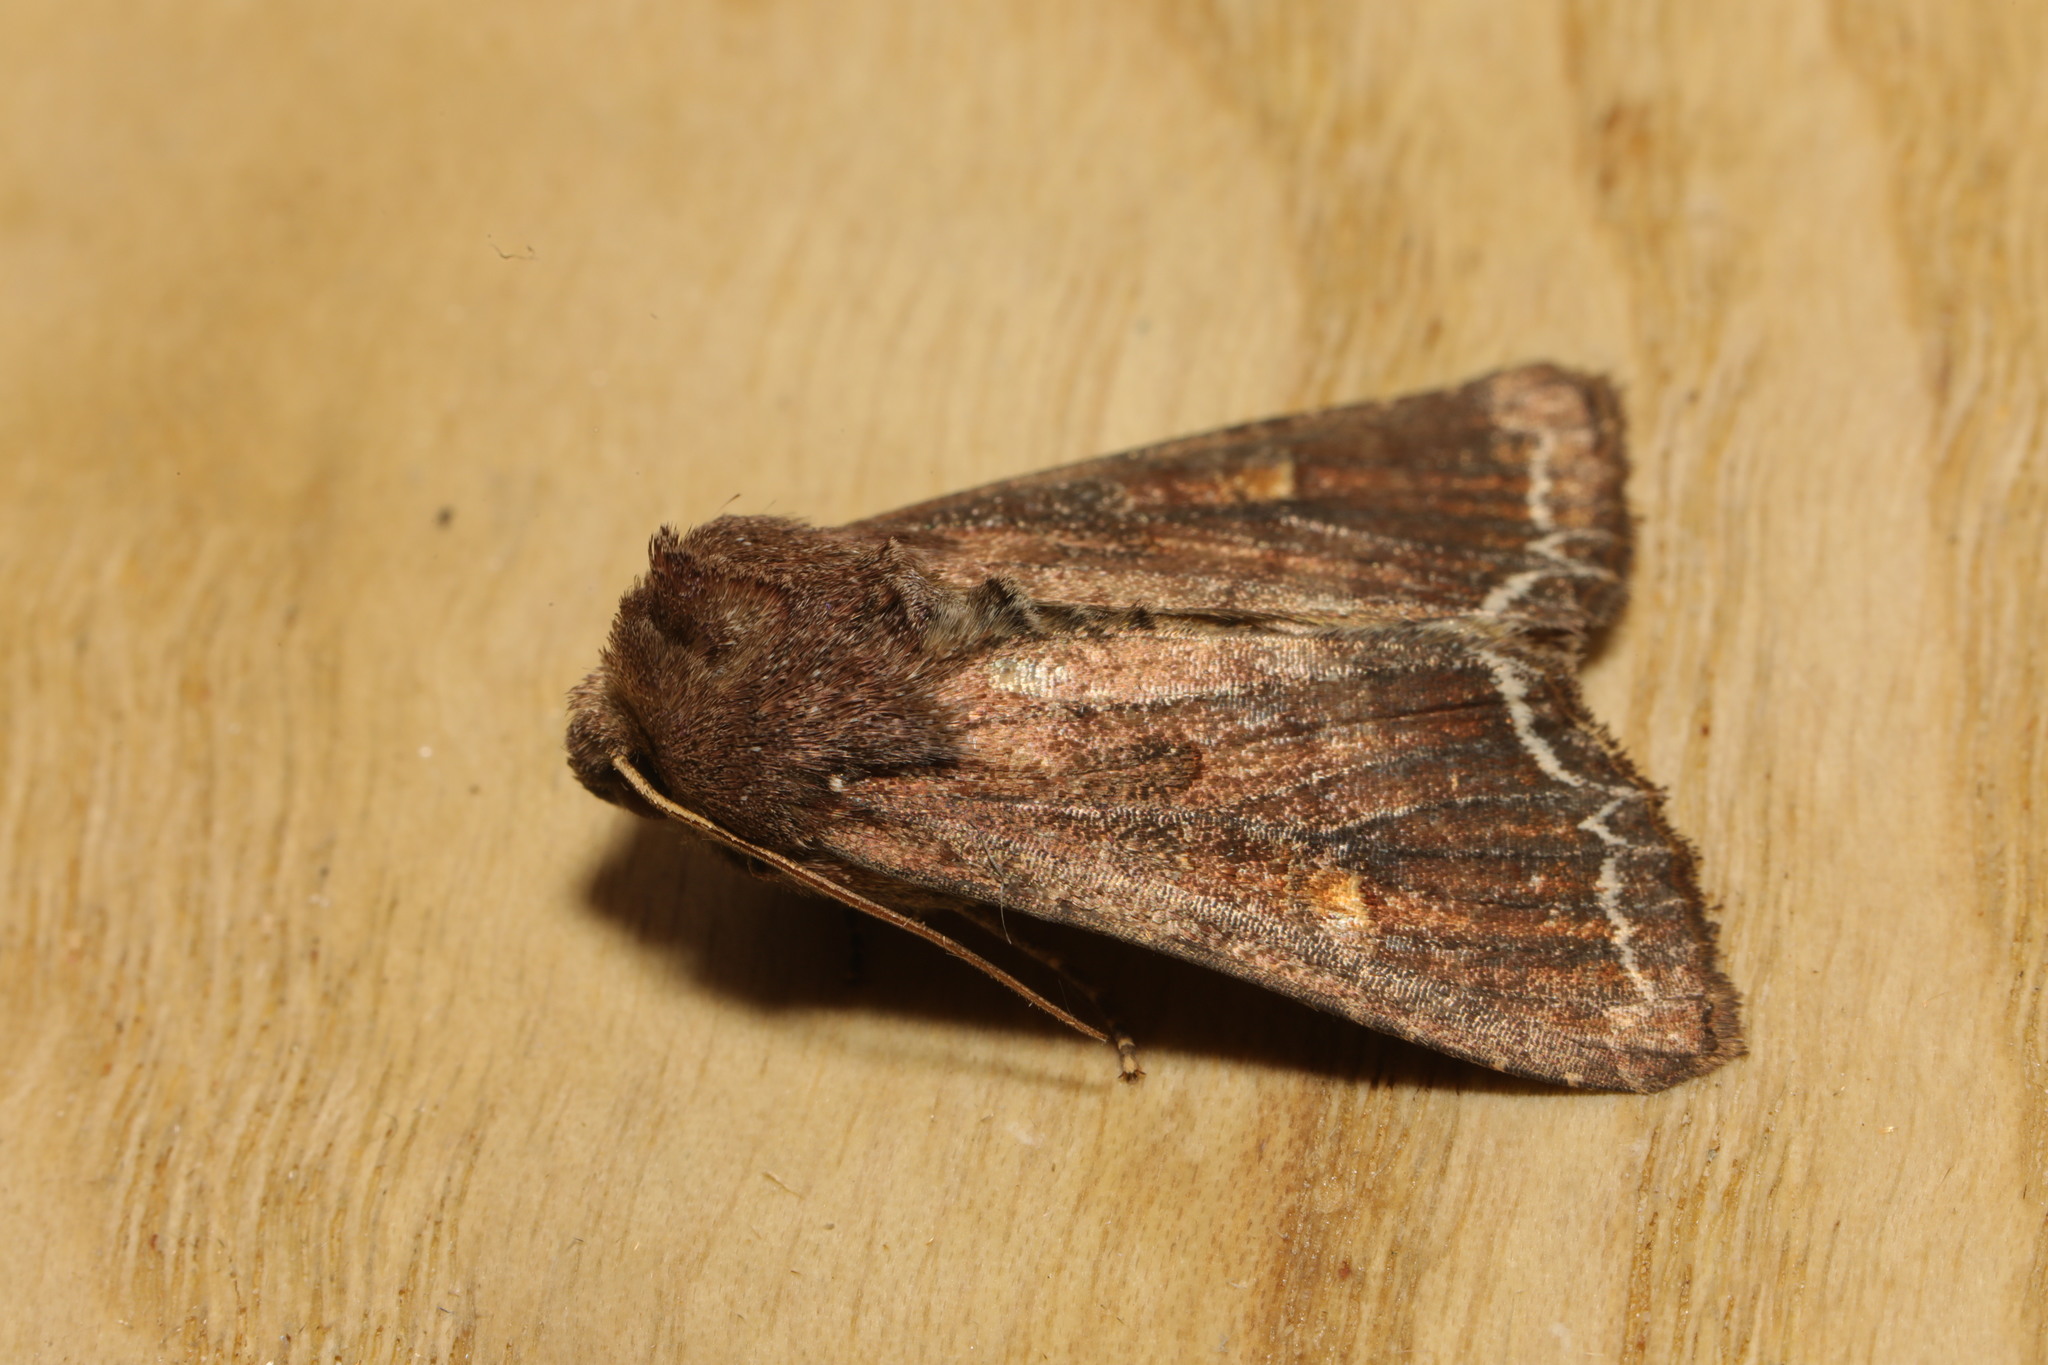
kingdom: Animalia
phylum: Arthropoda
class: Insecta
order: Lepidoptera
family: Noctuidae
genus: Lacanobia
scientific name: Lacanobia oleracea
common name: Bright-line brown-eye
